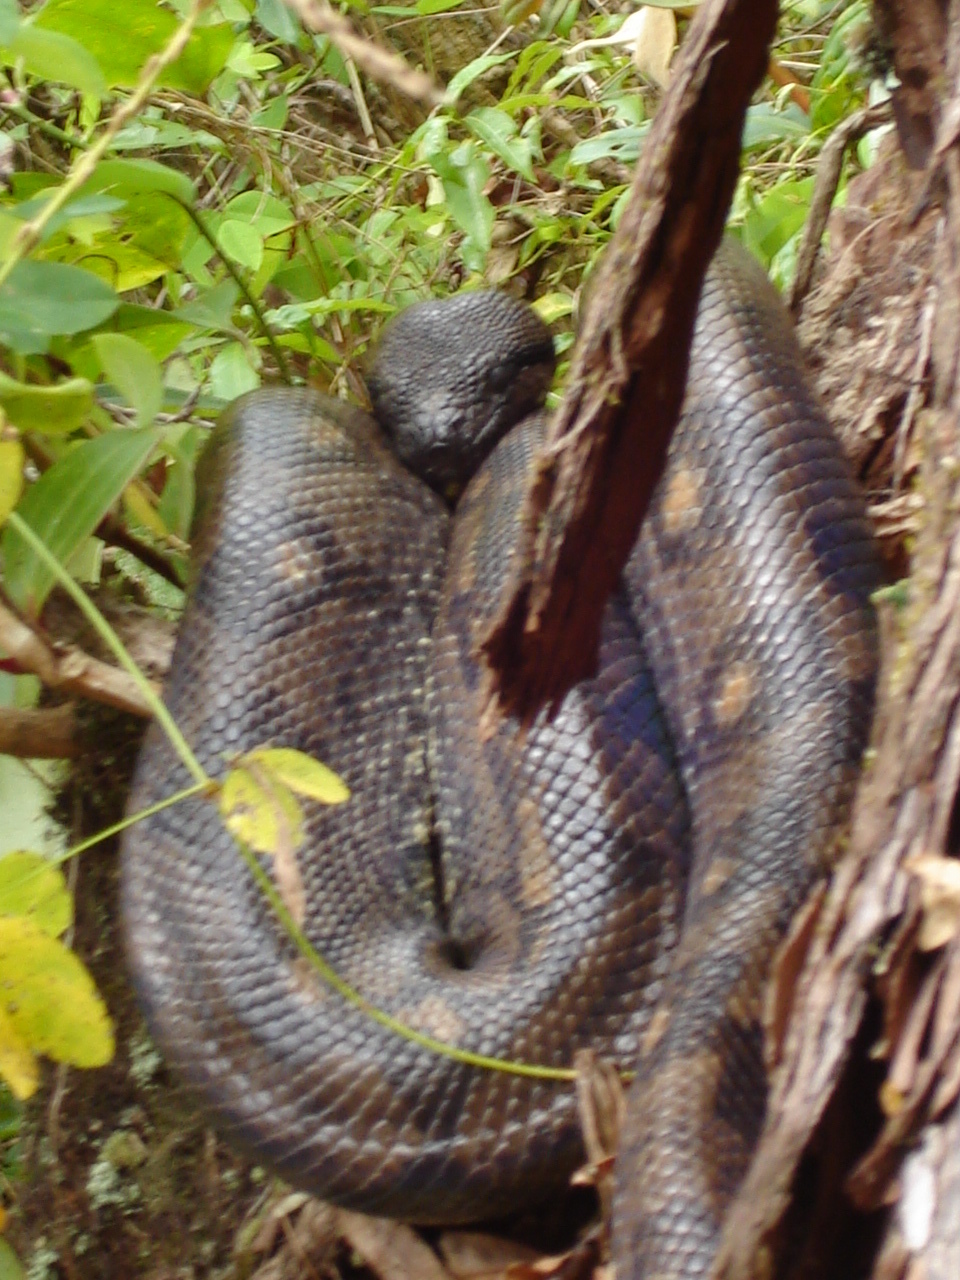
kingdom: Animalia
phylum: Chordata
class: Squamata
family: Boidae
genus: Sanzinia
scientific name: Sanzinia volontany
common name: Nosy komba tree boa
